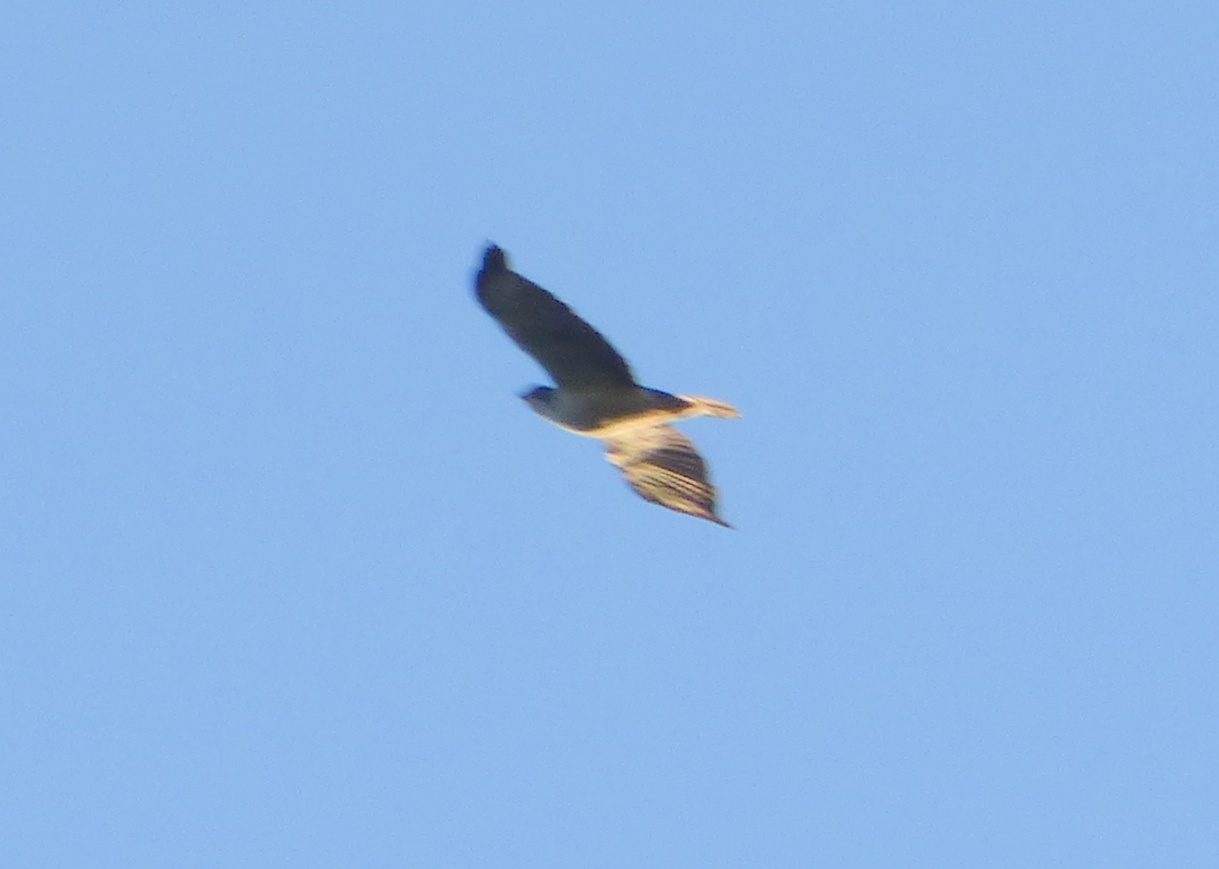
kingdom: Animalia
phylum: Chordata
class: Aves
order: Accipitriformes
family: Accipitridae
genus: Buteo
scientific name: Buteo brachyurus
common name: Short-tailed hawk
